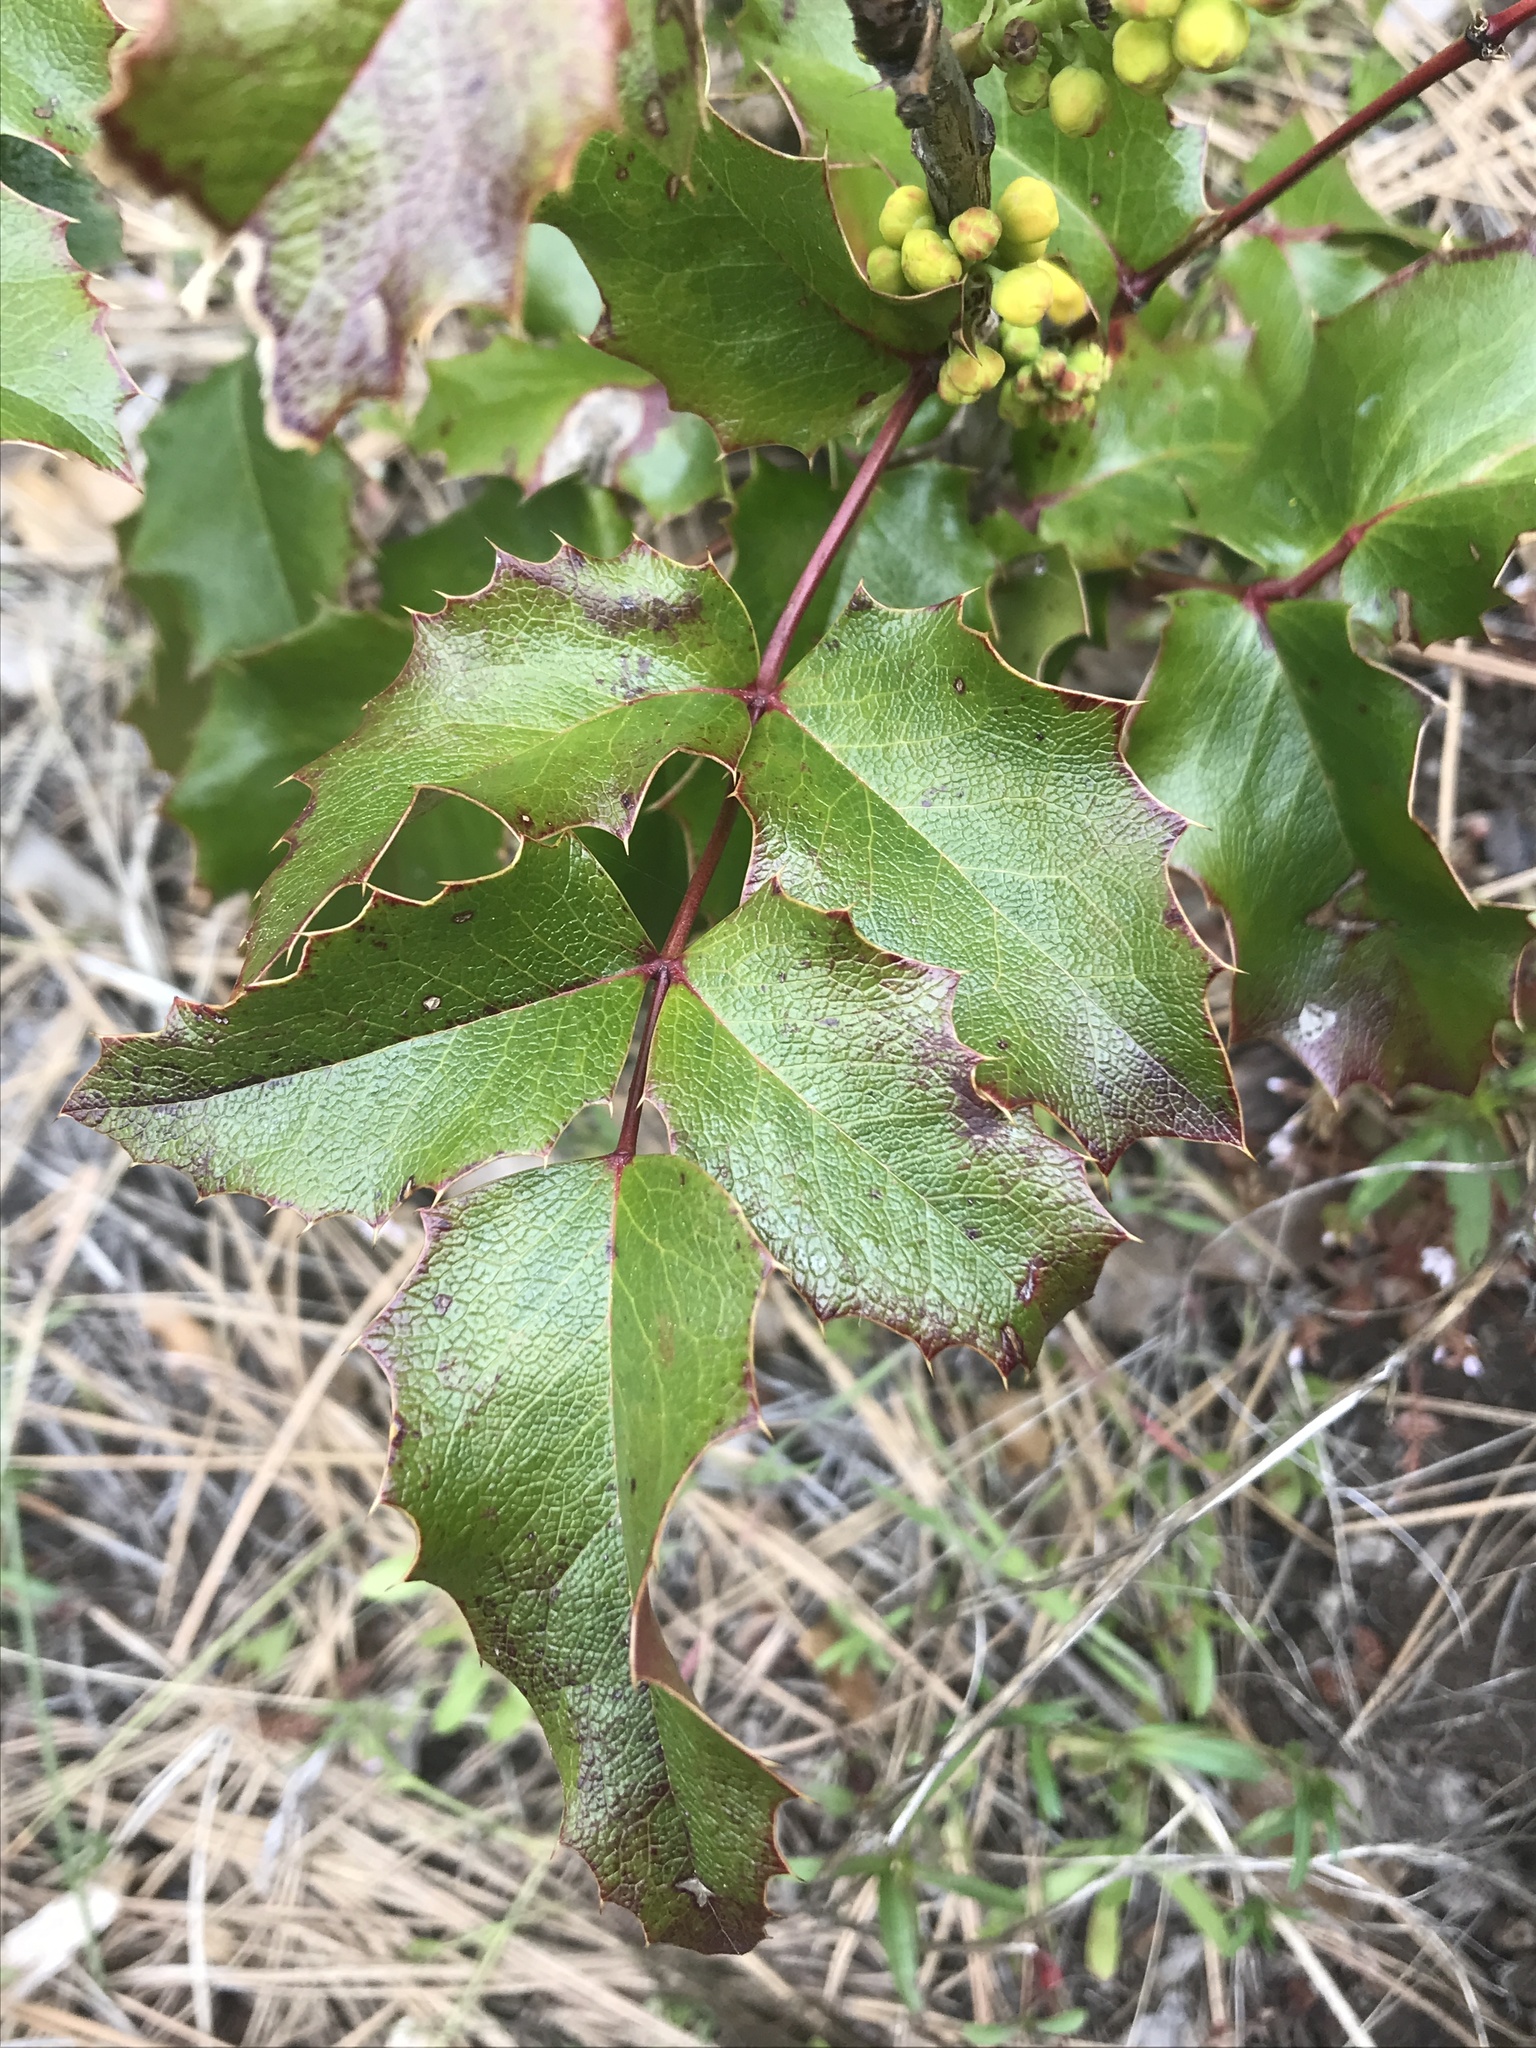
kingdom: Plantae
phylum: Tracheophyta
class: Magnoliopsida
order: Ranunculales
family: Berberidaceae
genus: Mahonia
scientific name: Mahonia aquifolium
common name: Oregon-grape
